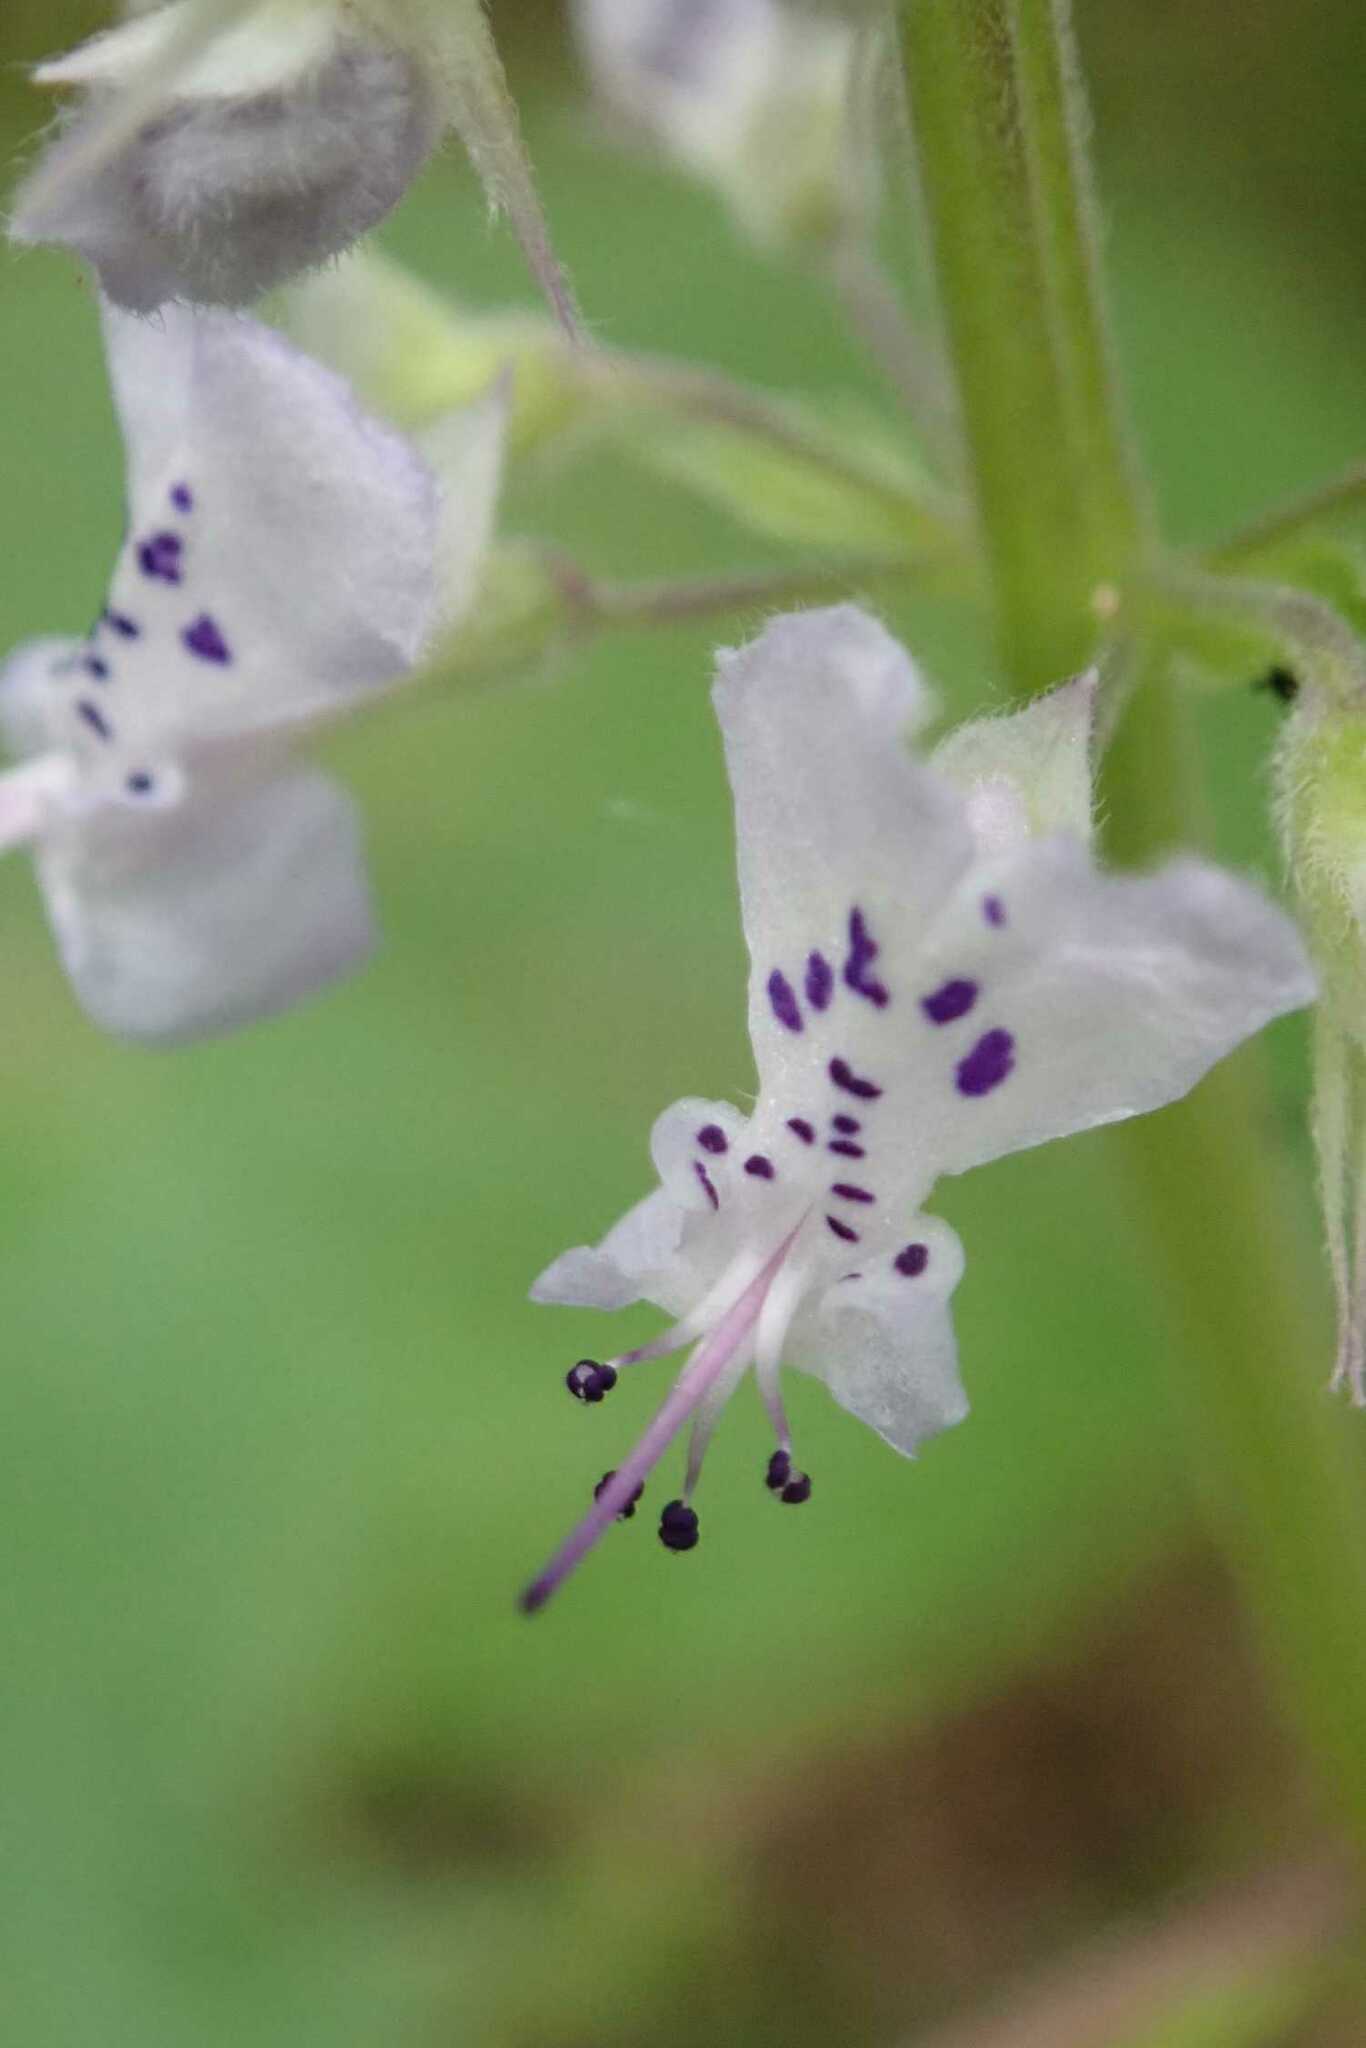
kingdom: Plantae
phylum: Tracheophyta
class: Magnoliopsida
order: Lamiales
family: Lamiaceae
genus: Plectranthus
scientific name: Plectranthus fruticosus
